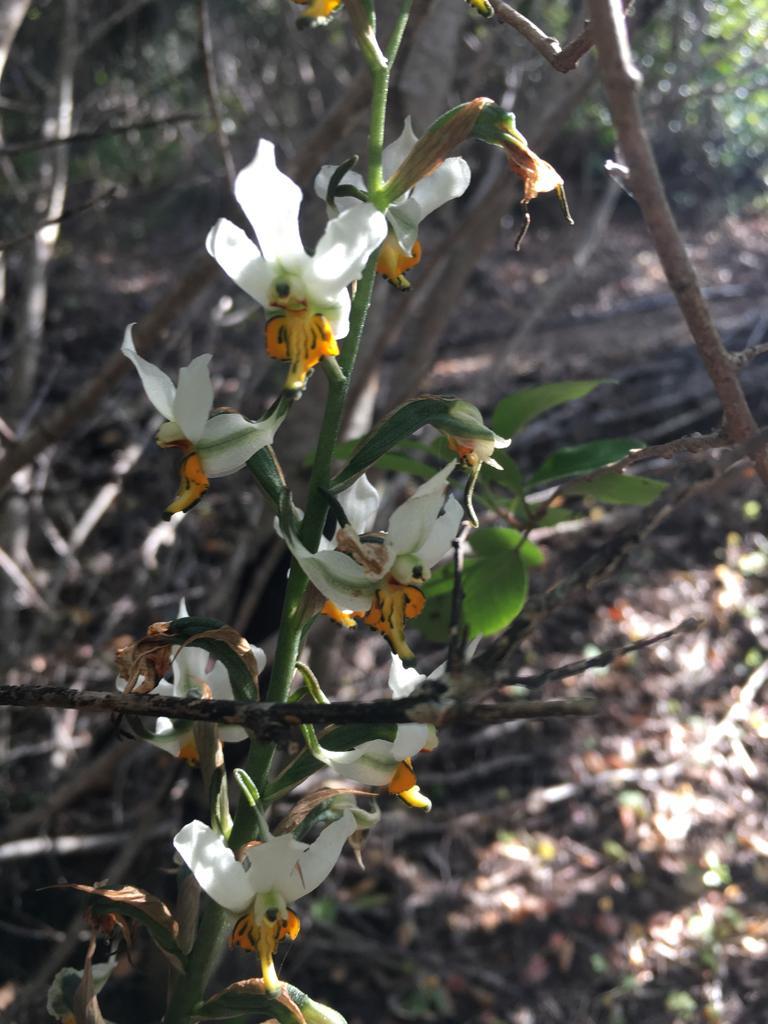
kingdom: Plantae
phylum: Tracheophyta
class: Liliopsida
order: Asparagales
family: Orchidaceae
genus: Gavilea
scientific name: Gavilea longibracteata
